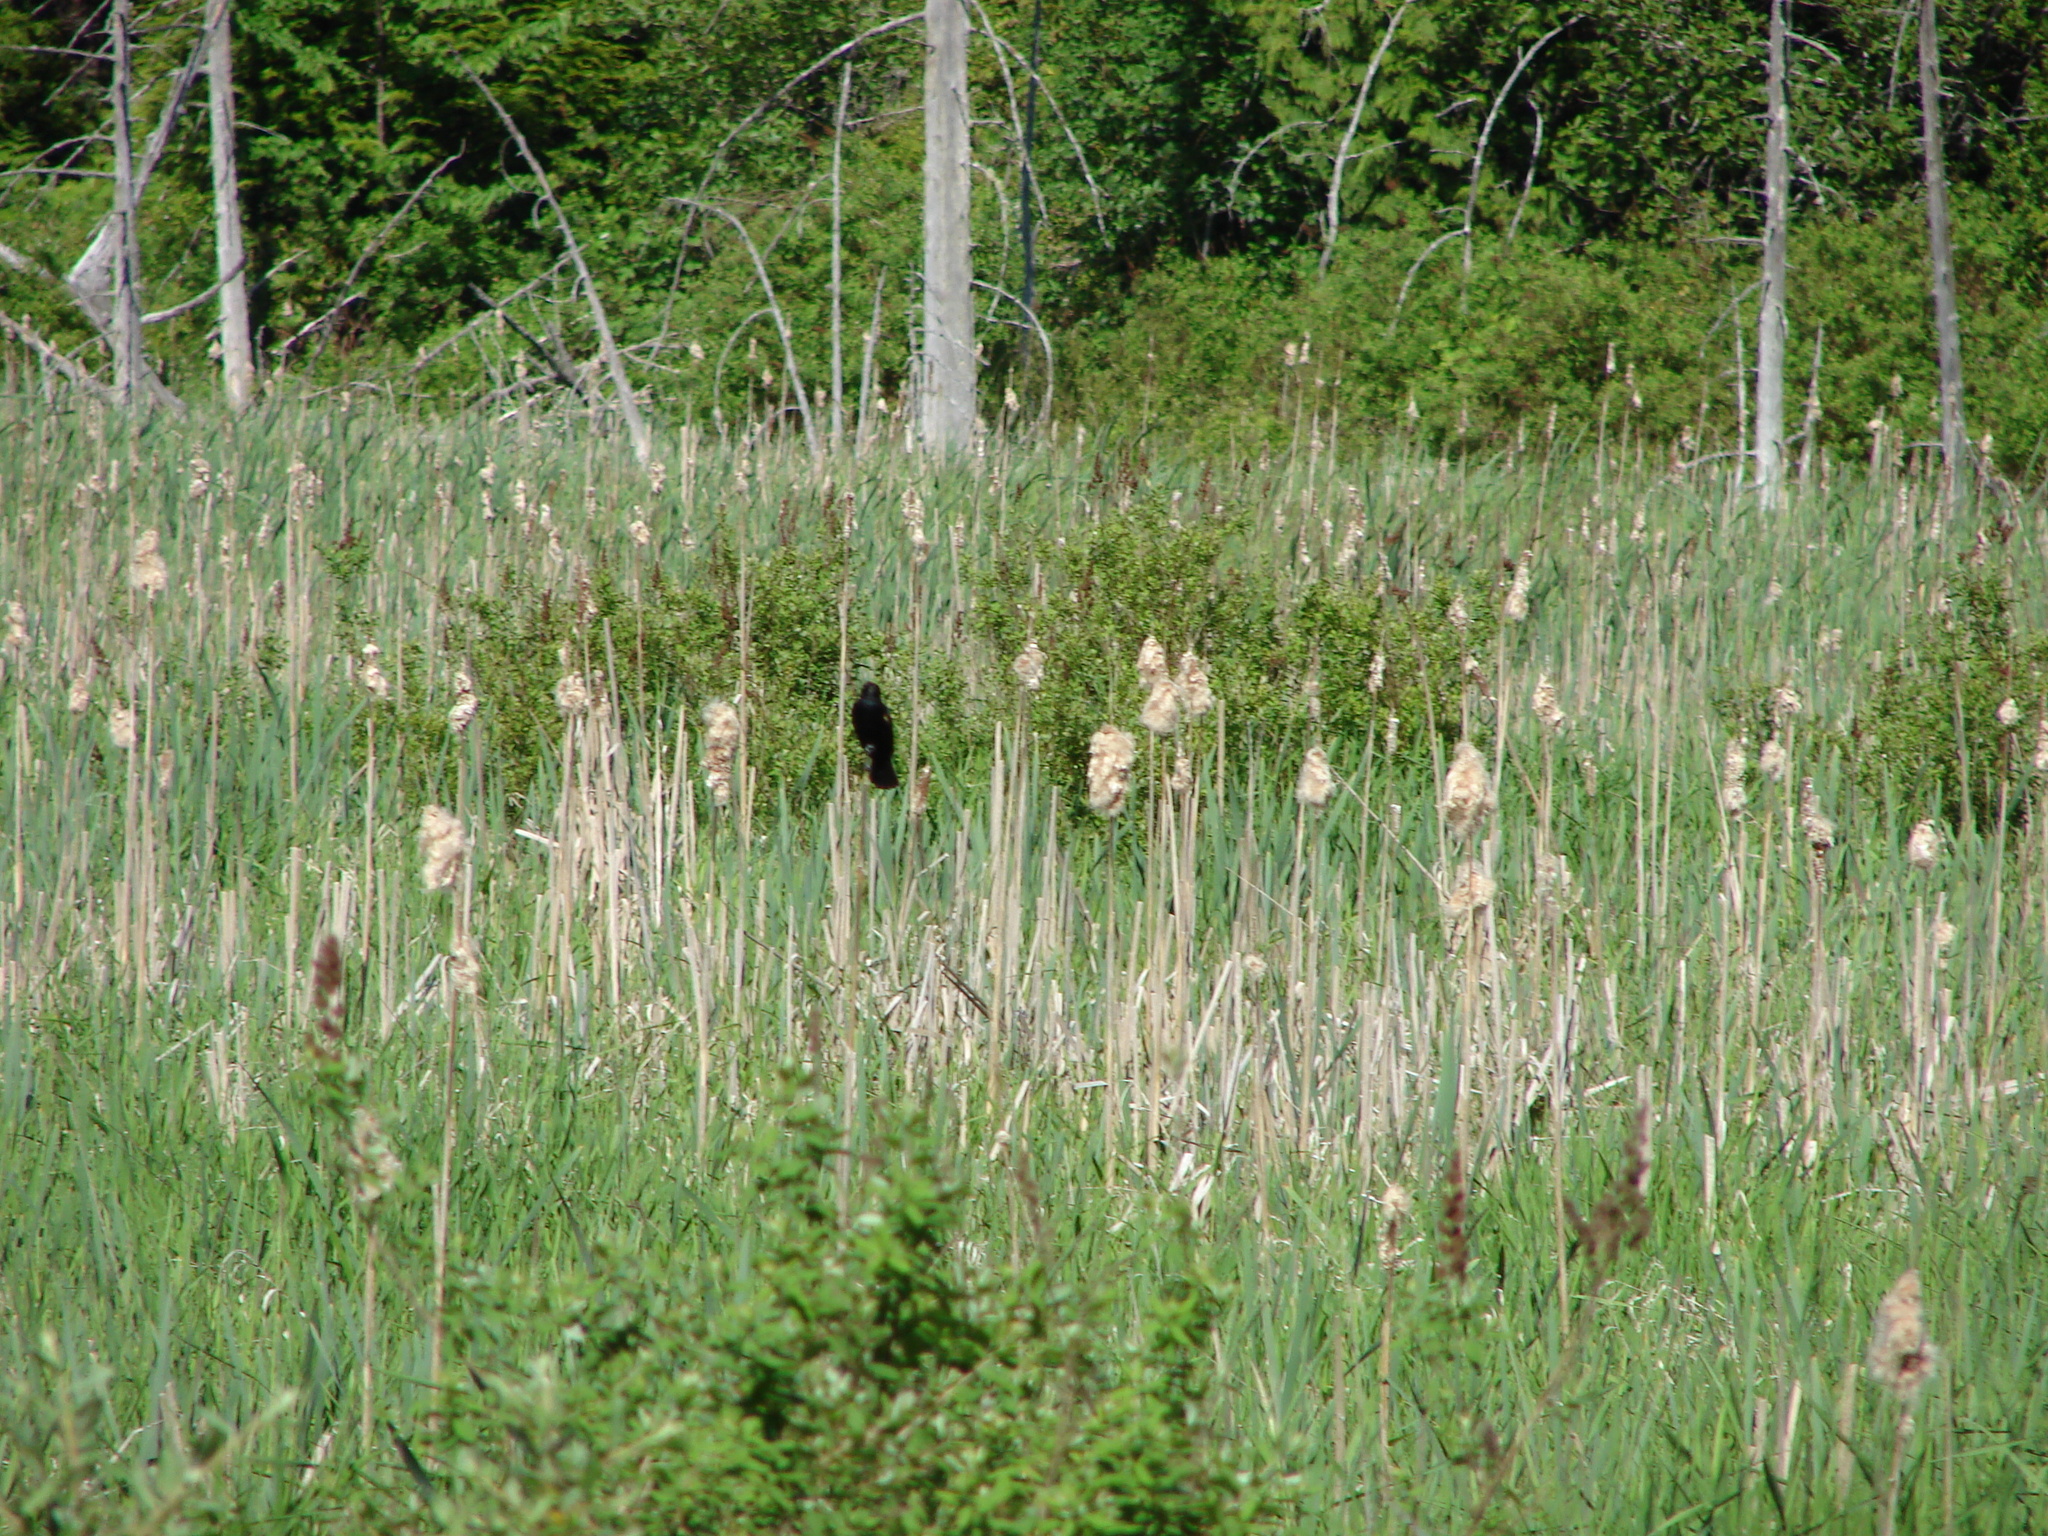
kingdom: Animalia
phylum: Chordata
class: Aves
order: Passeriformes
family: Icteridae
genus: Agelaius
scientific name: Agelaius phoeniceus
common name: Red-winged blackbird
